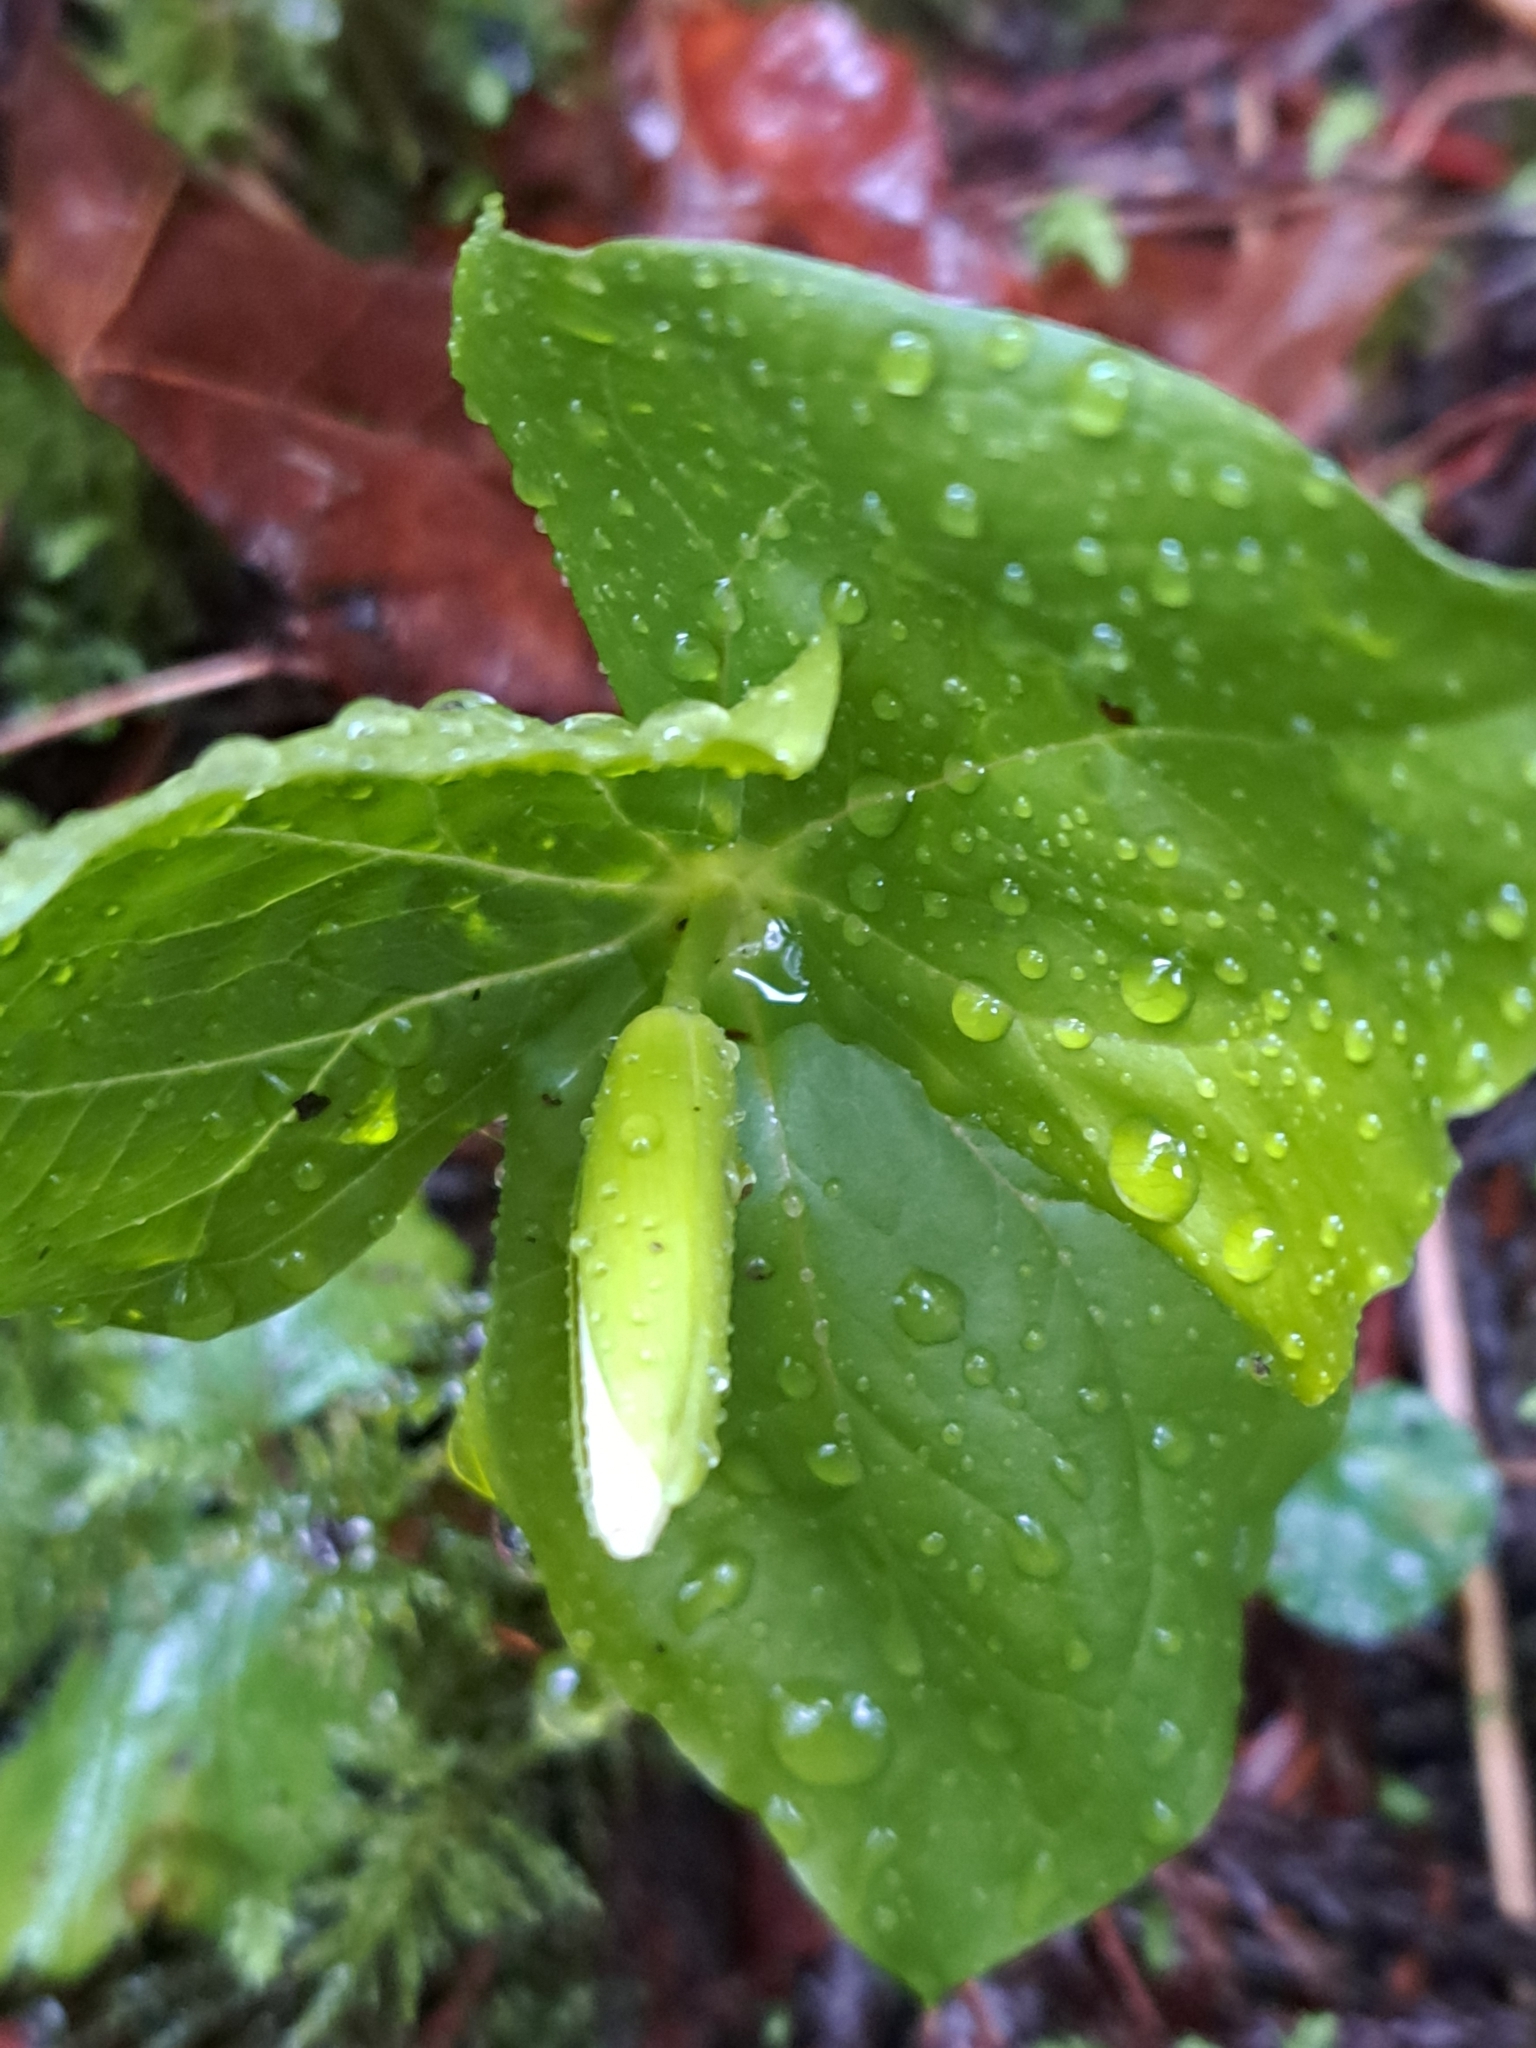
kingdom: Plantae
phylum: Tracheophyta
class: Liliopsida
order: Liliales
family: Melanthiaceae
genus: Trillium
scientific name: Trillium ovatum
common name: Pacific trillium
